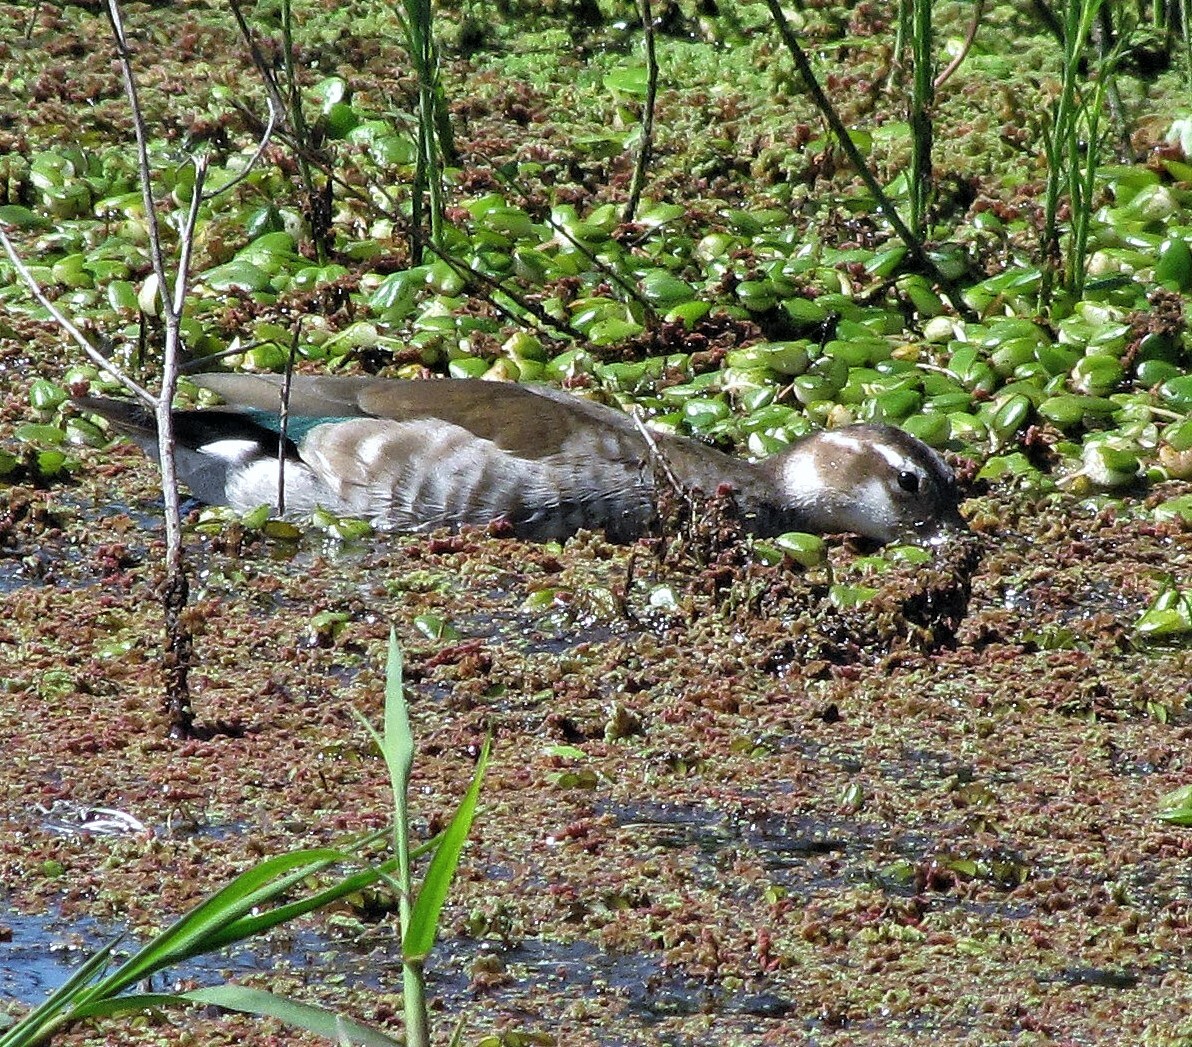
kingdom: Animalia
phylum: Chordata
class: Aves
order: Anseriformes
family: Anatidae
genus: Callonetta
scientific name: Callonetta leucophrys
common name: Ringed teal
